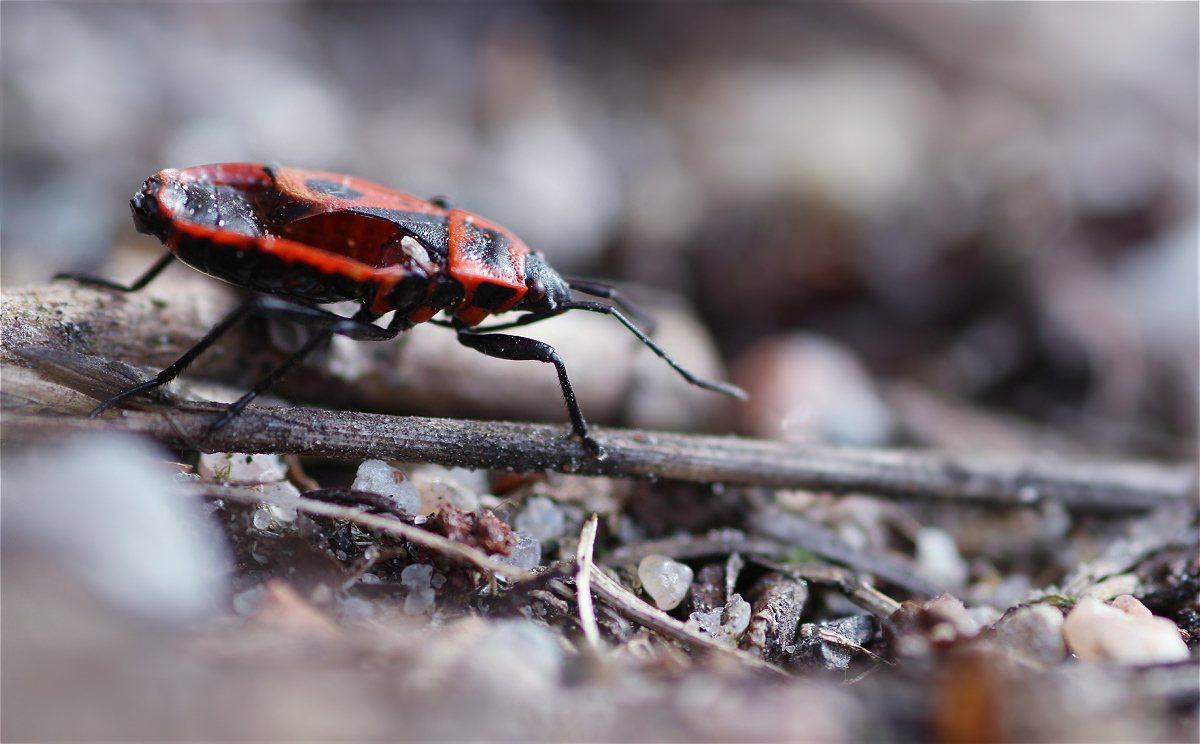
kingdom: Animalia
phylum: Arthropoda
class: Insecta
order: Hemiptera
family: Pyrrhocoridae
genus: Pyrrhocoris
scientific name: Pyrrhocoris apterus
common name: Firebug
